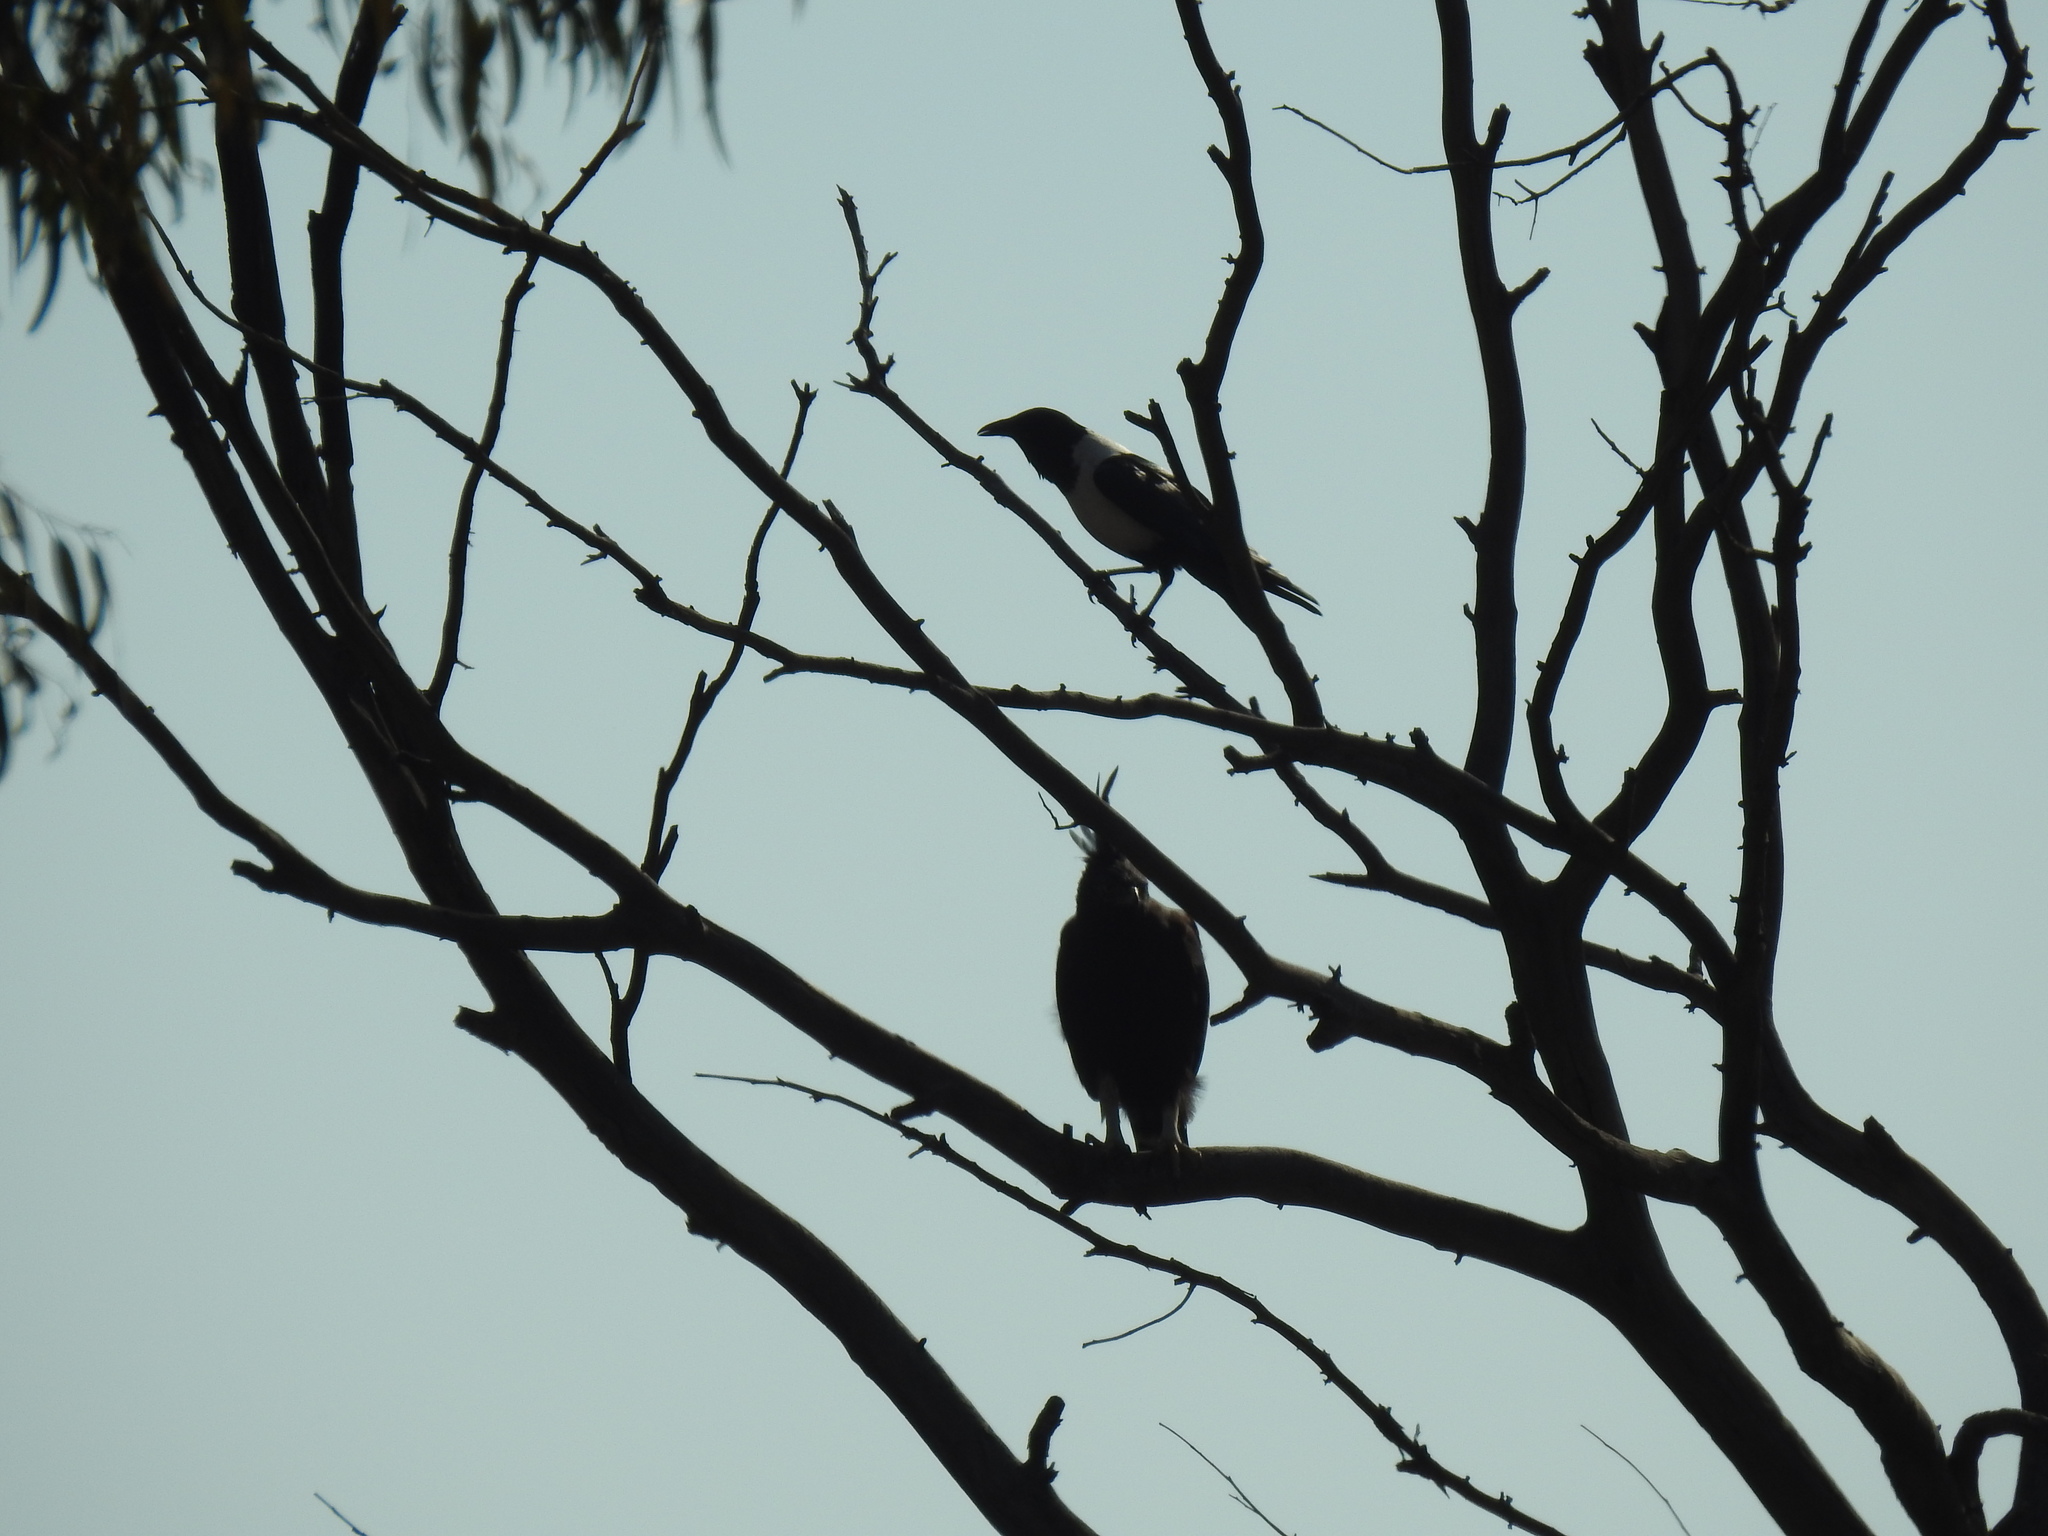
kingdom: Animalia
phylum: Chordata
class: Aves
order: Accipitriformes
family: Accipitridae
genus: Lophaetus
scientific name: Lophaetus occipitalis
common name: Long-crested eagle
